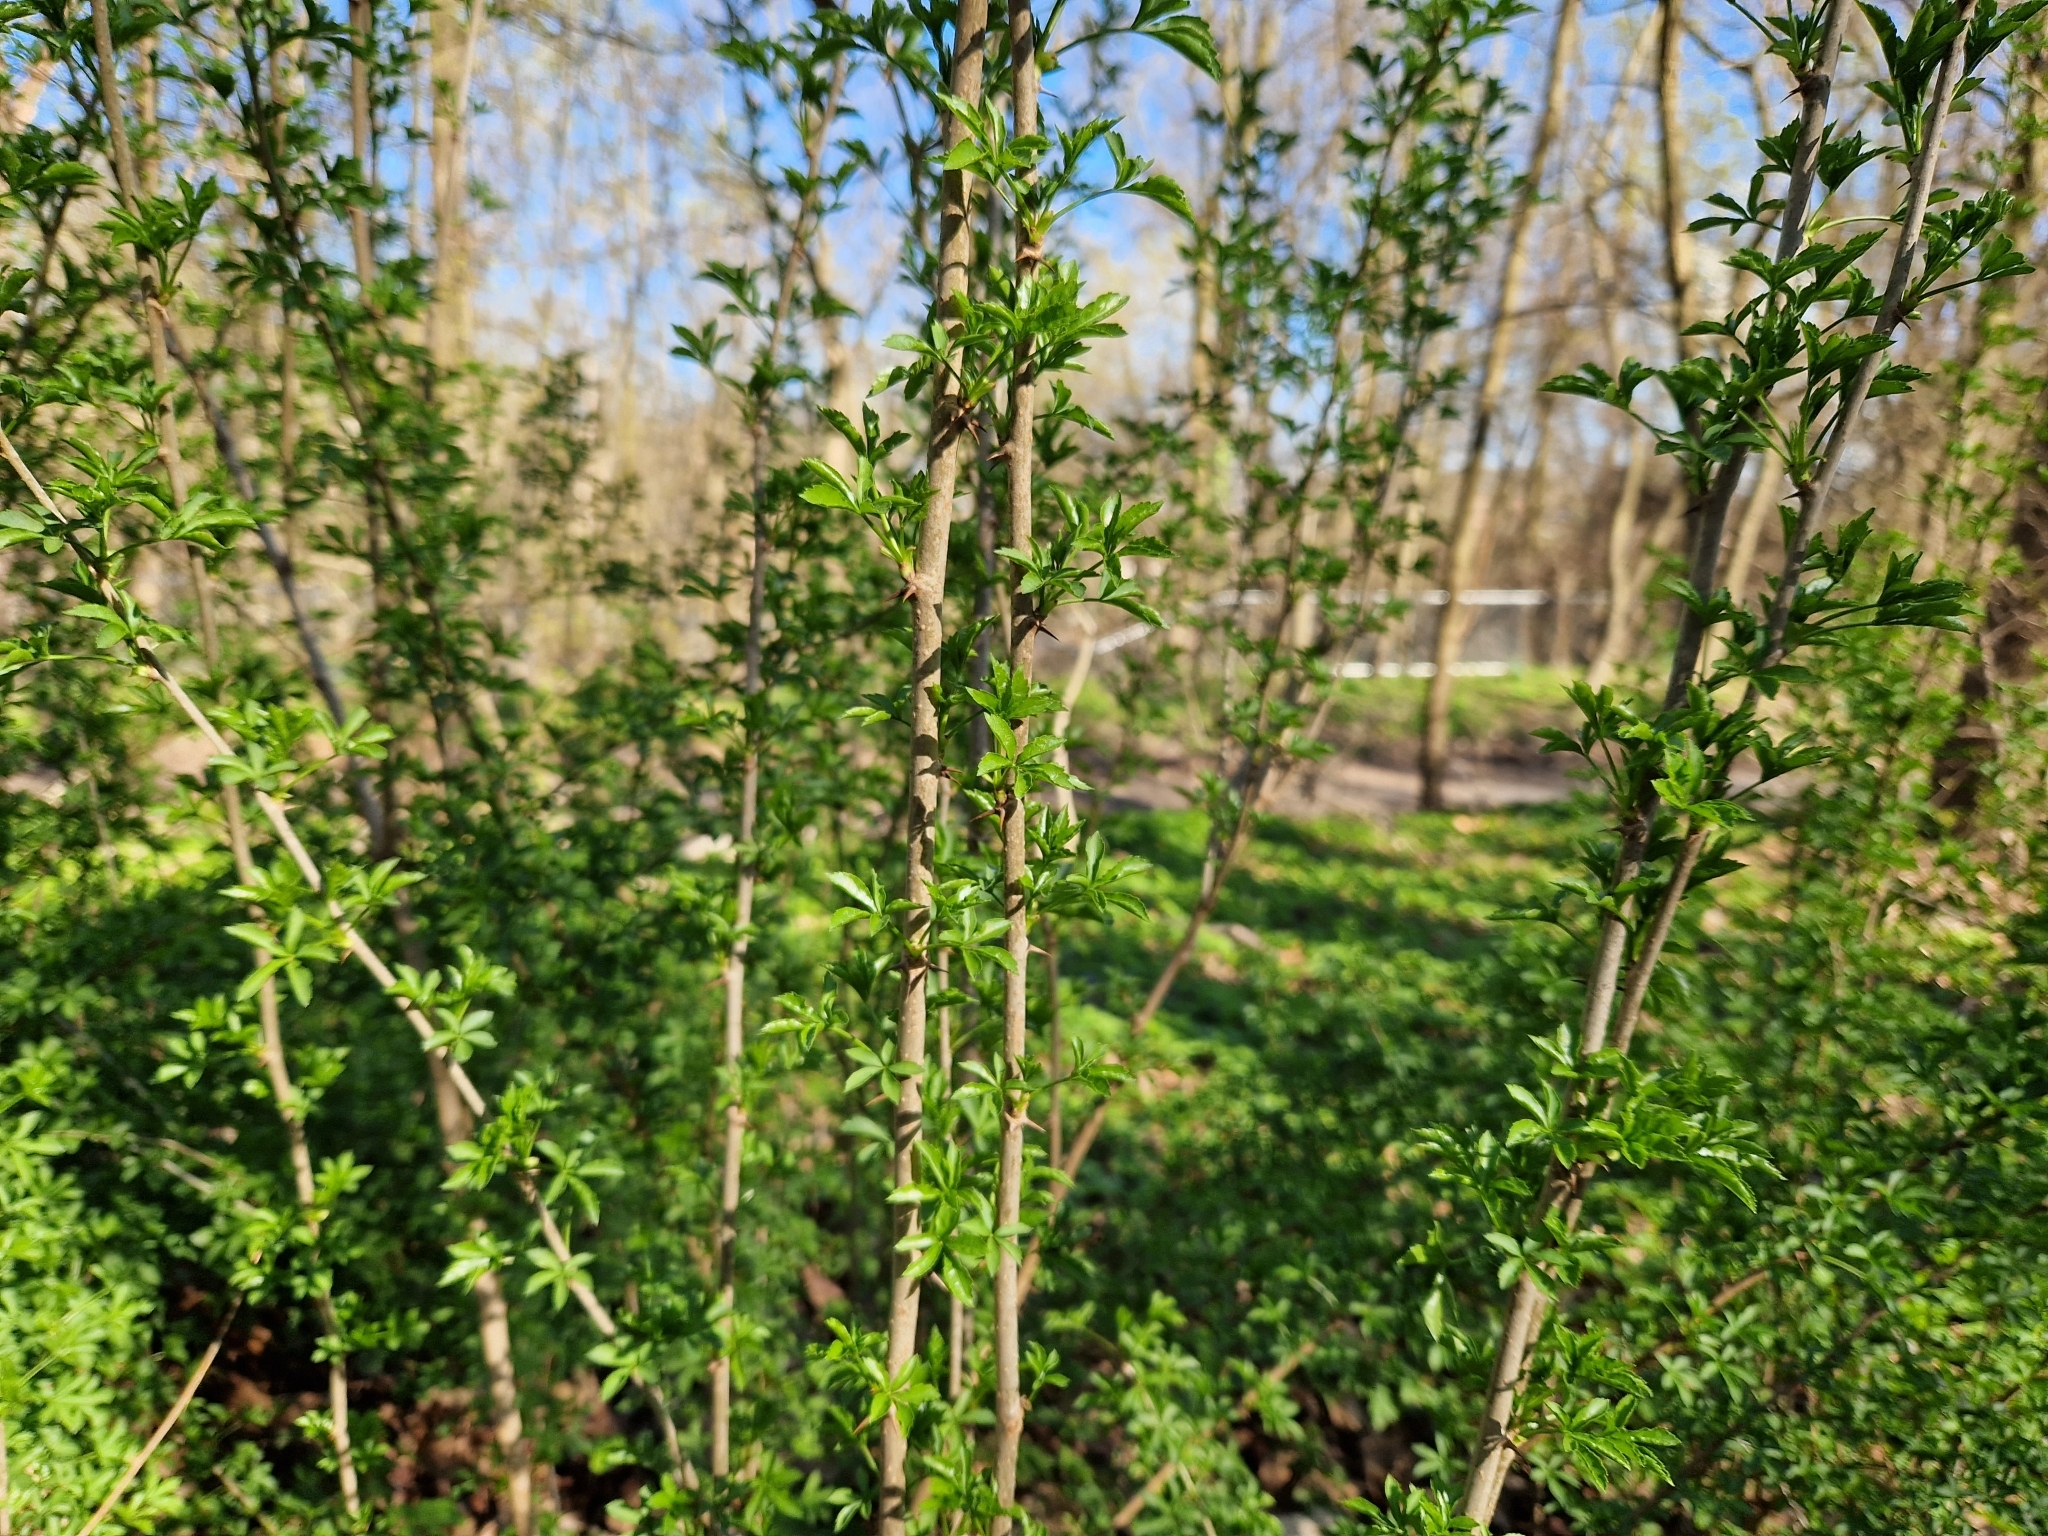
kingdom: Plantae
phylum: Tracheophyta
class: Magnoliopsida
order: Apiales
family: Araliaceae
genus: Eleutherococcus
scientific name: Eleutherococcus sieboldianus
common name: Ginseng
